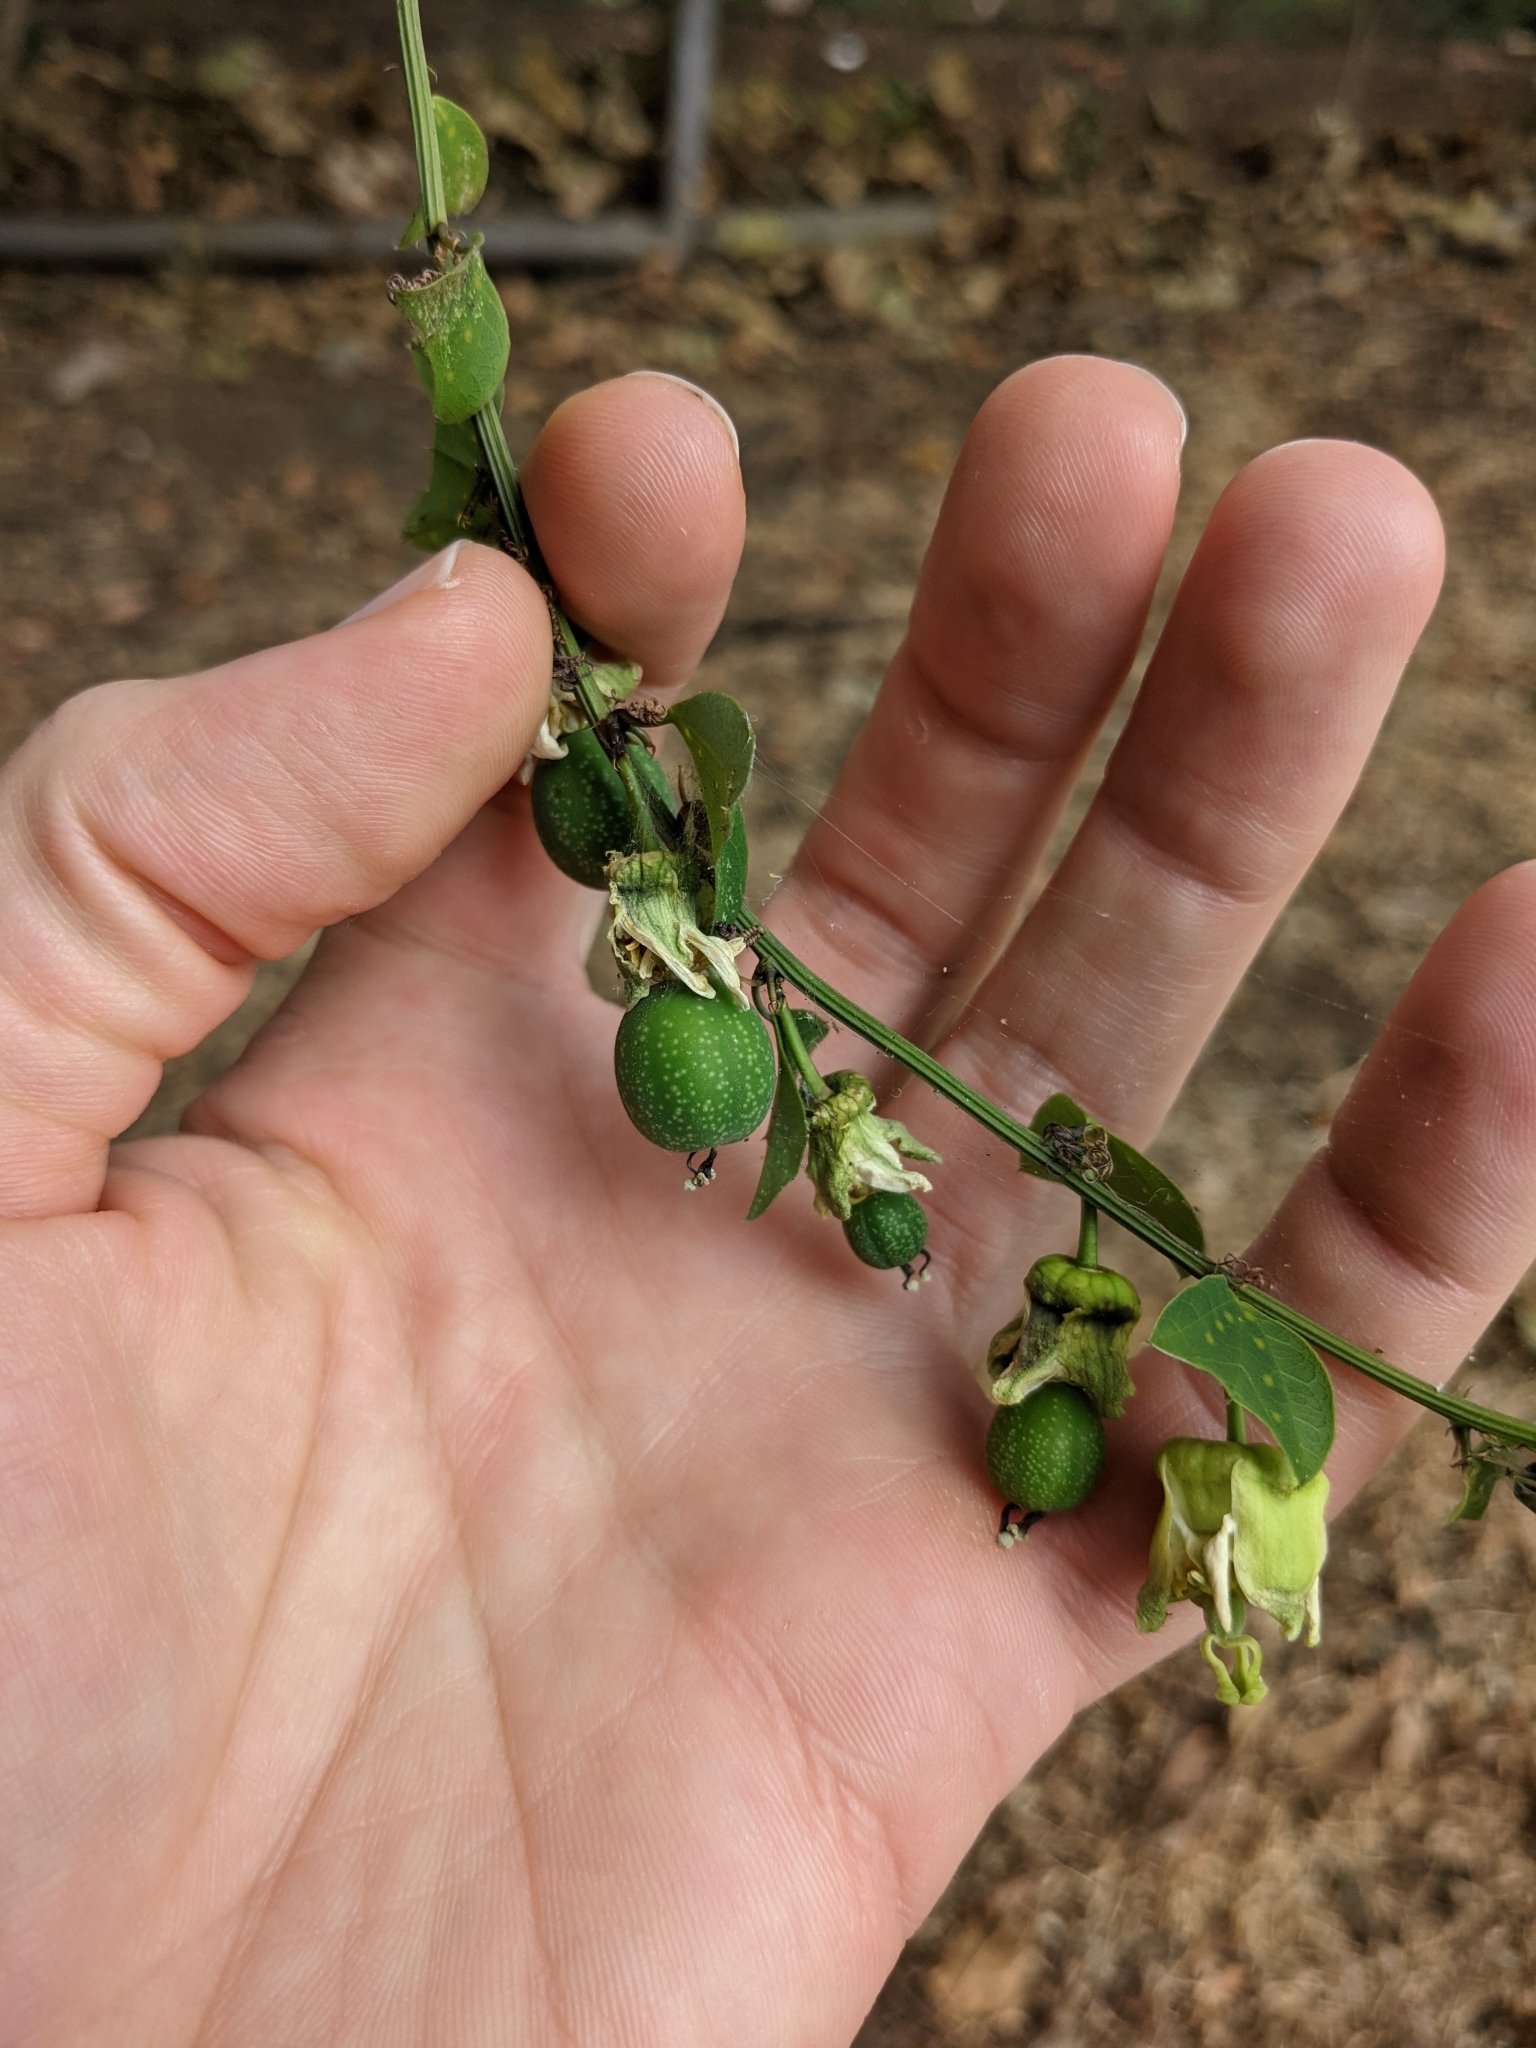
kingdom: Plantae
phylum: Tracheophyta
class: Magnoliopsida
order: Malpighiales
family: Passifloraceae
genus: Passiflora
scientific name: Passiflora biflora
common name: Twoflower passionflower
